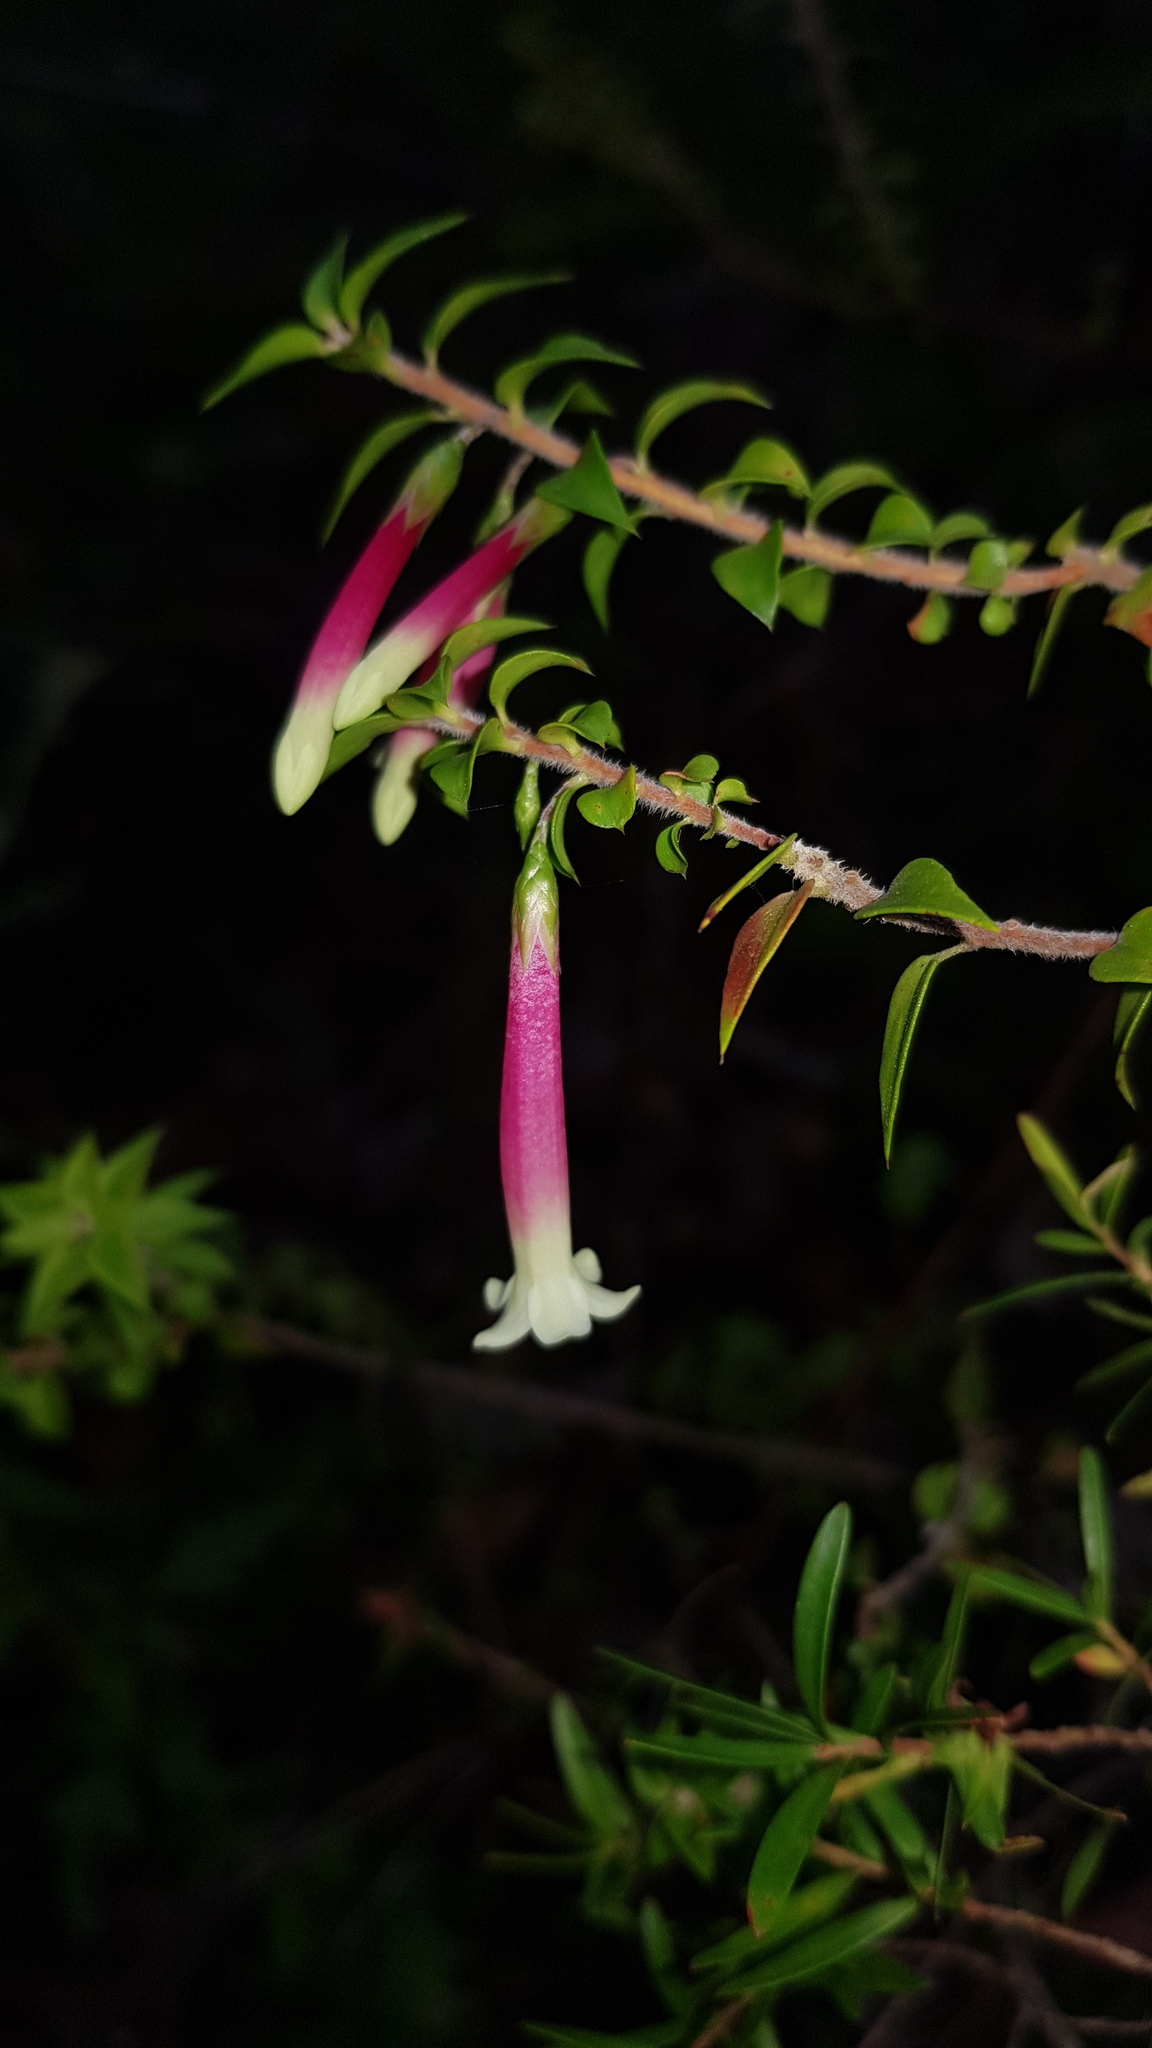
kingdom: Plantae
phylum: Tracheophyta
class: Magnoliopsida
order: Ericales
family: Ericaceae
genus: Epacris
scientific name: Epacris longiflora
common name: Fuchsia-heath
